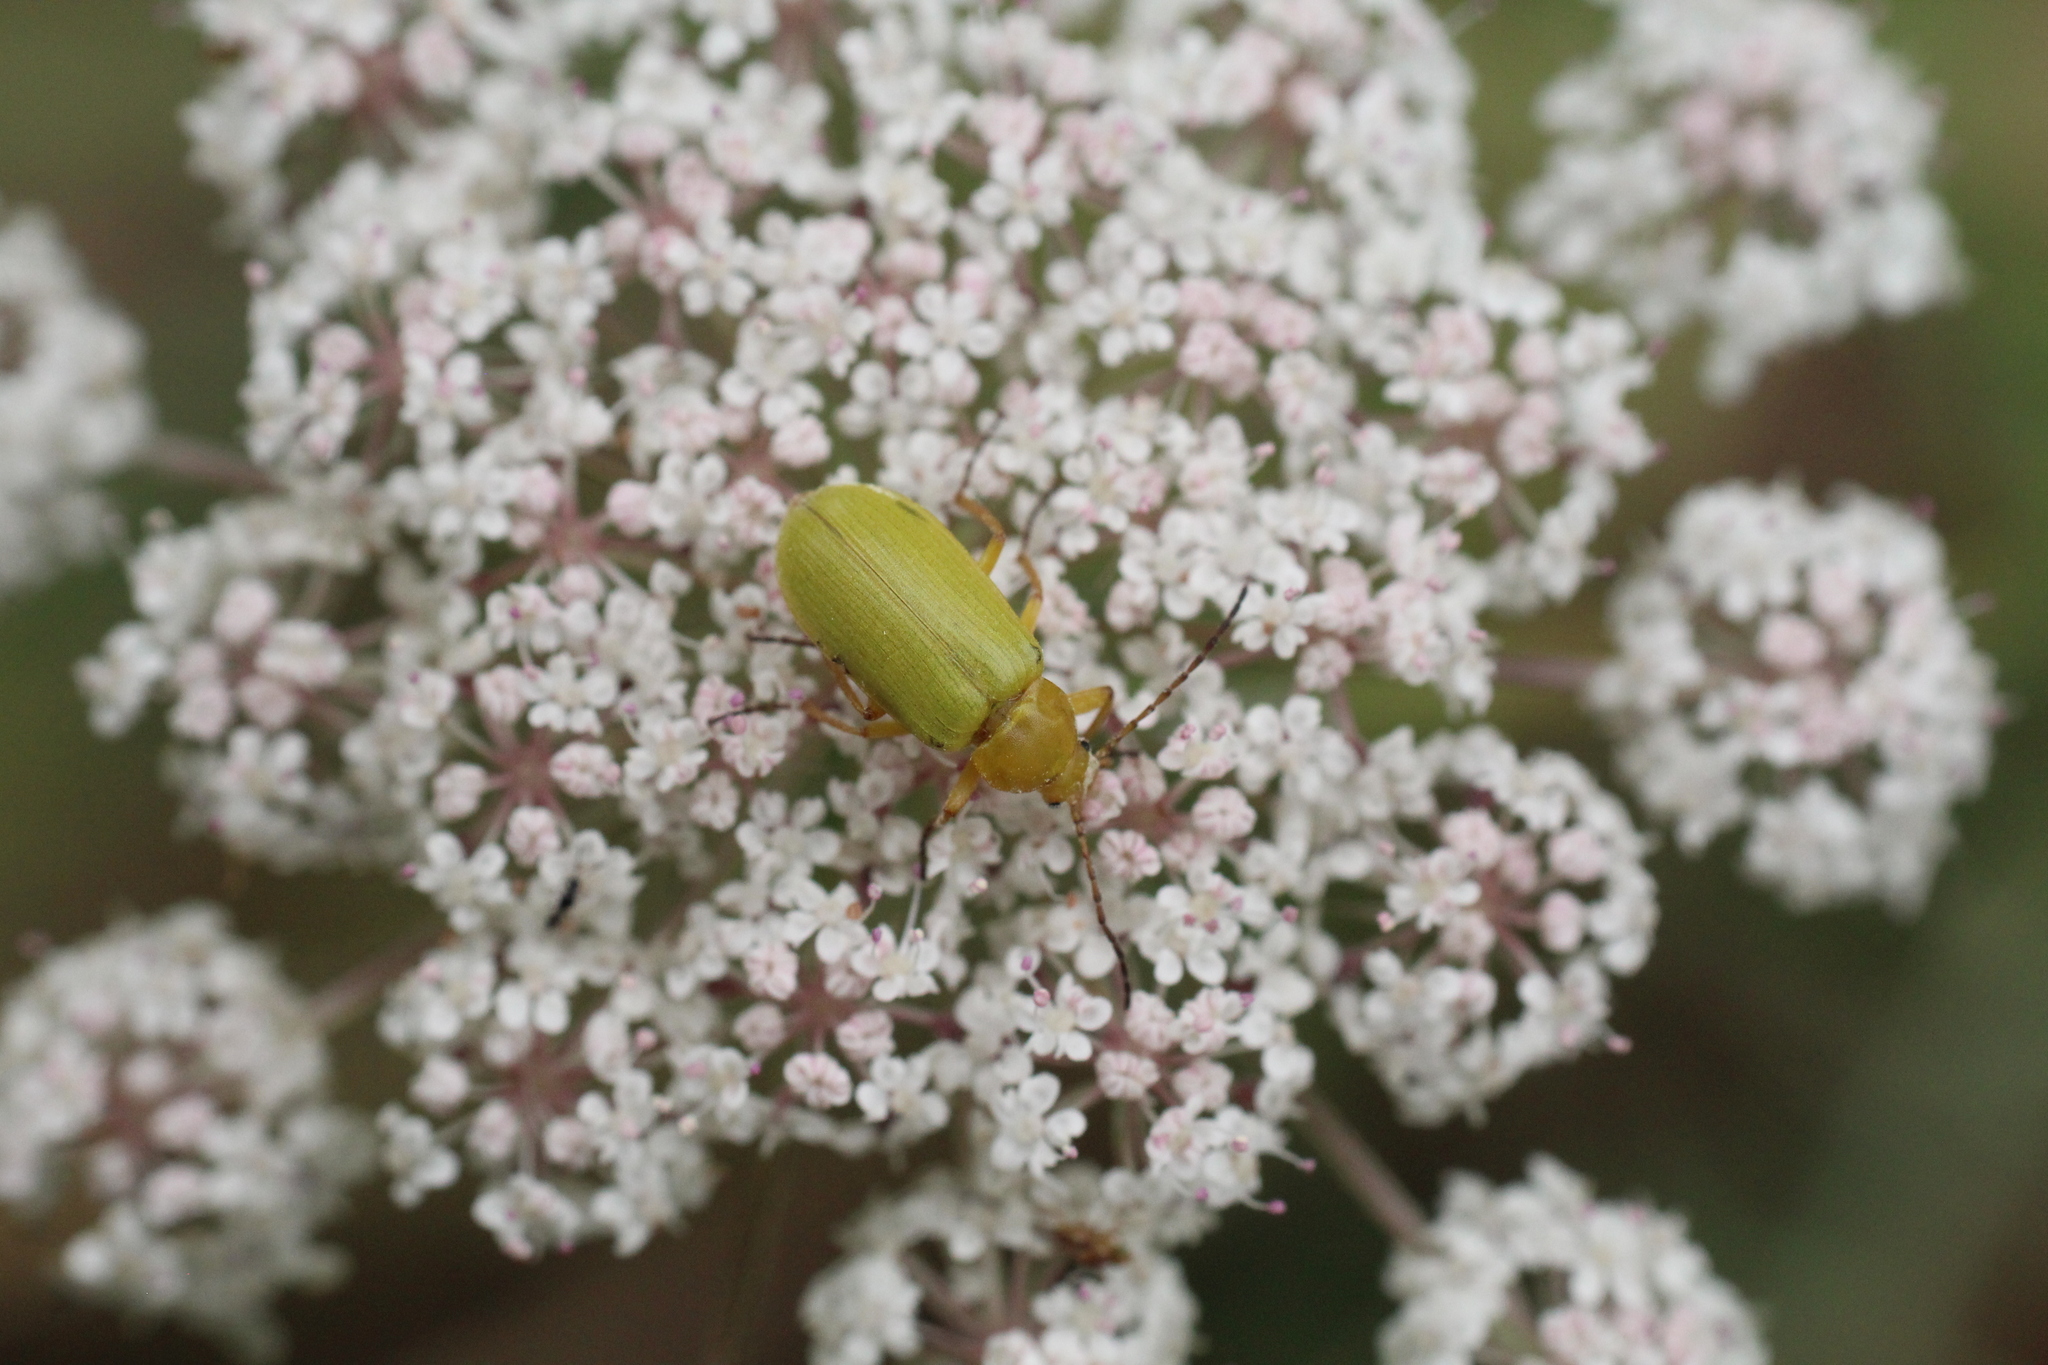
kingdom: Animalia
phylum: Arthropoda
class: Insecta
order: Coleoptera
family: Tenebrionidae
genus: Cteniopus
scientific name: Cteniopus sulphureus
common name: Sulphur beetle
